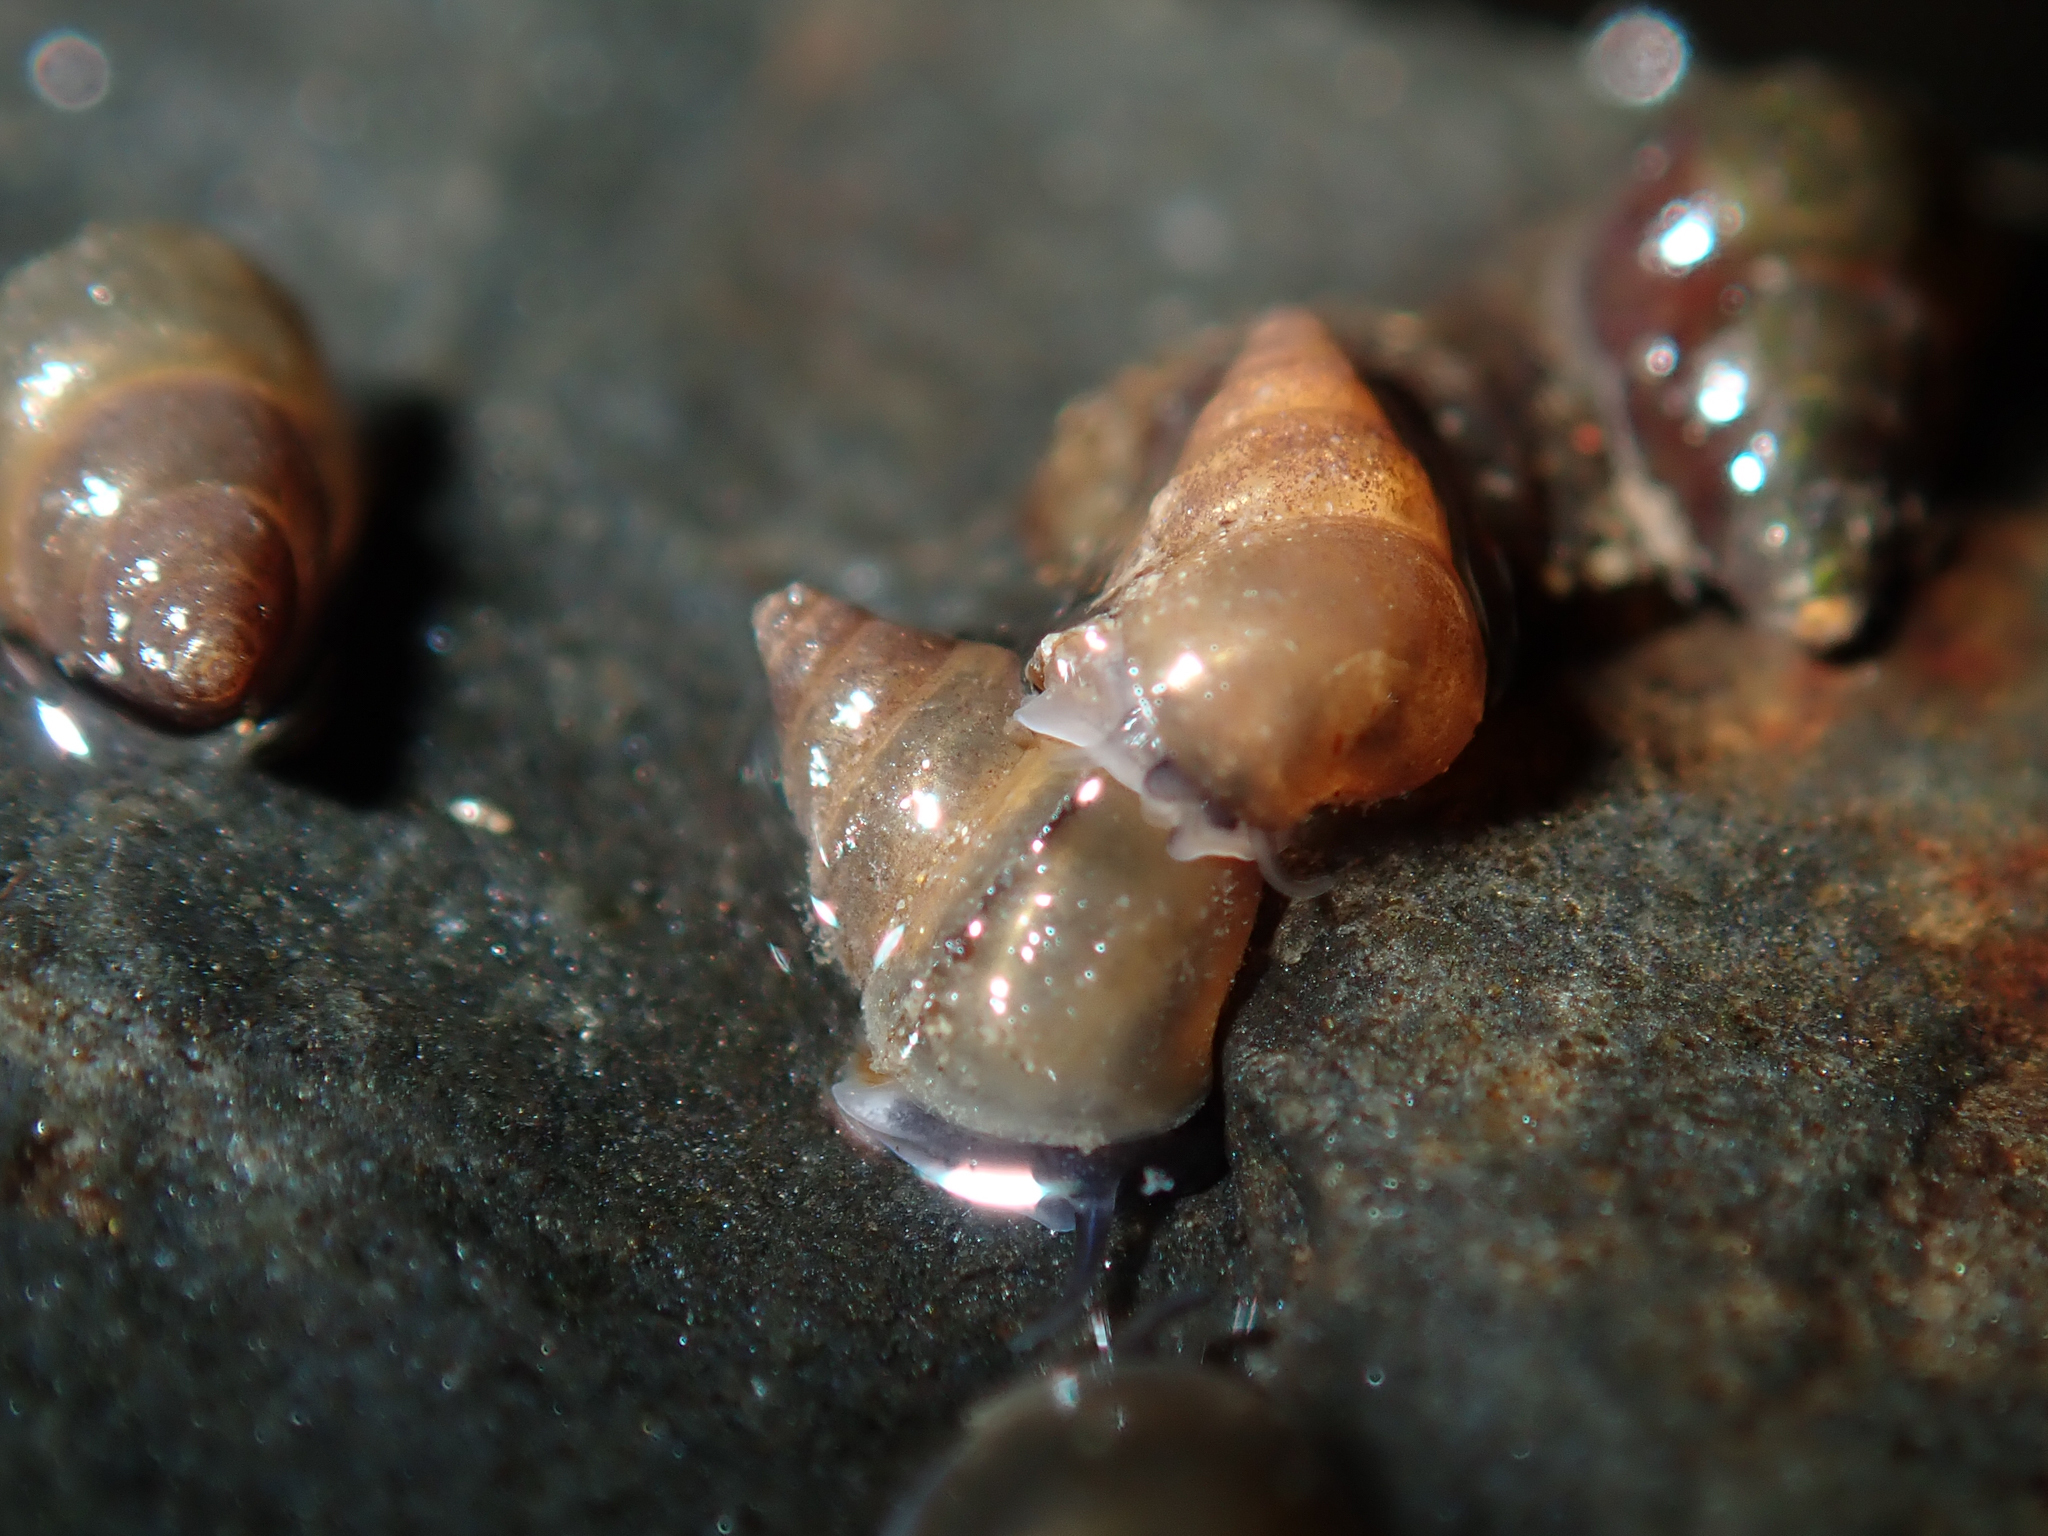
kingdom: Animalia
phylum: Mollusca
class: Gastropoda
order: Littorinimorpha
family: Tateidae
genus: Potamopyrgus
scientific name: Potamopyrgus antipodarum
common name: Jenkins' spire snail
